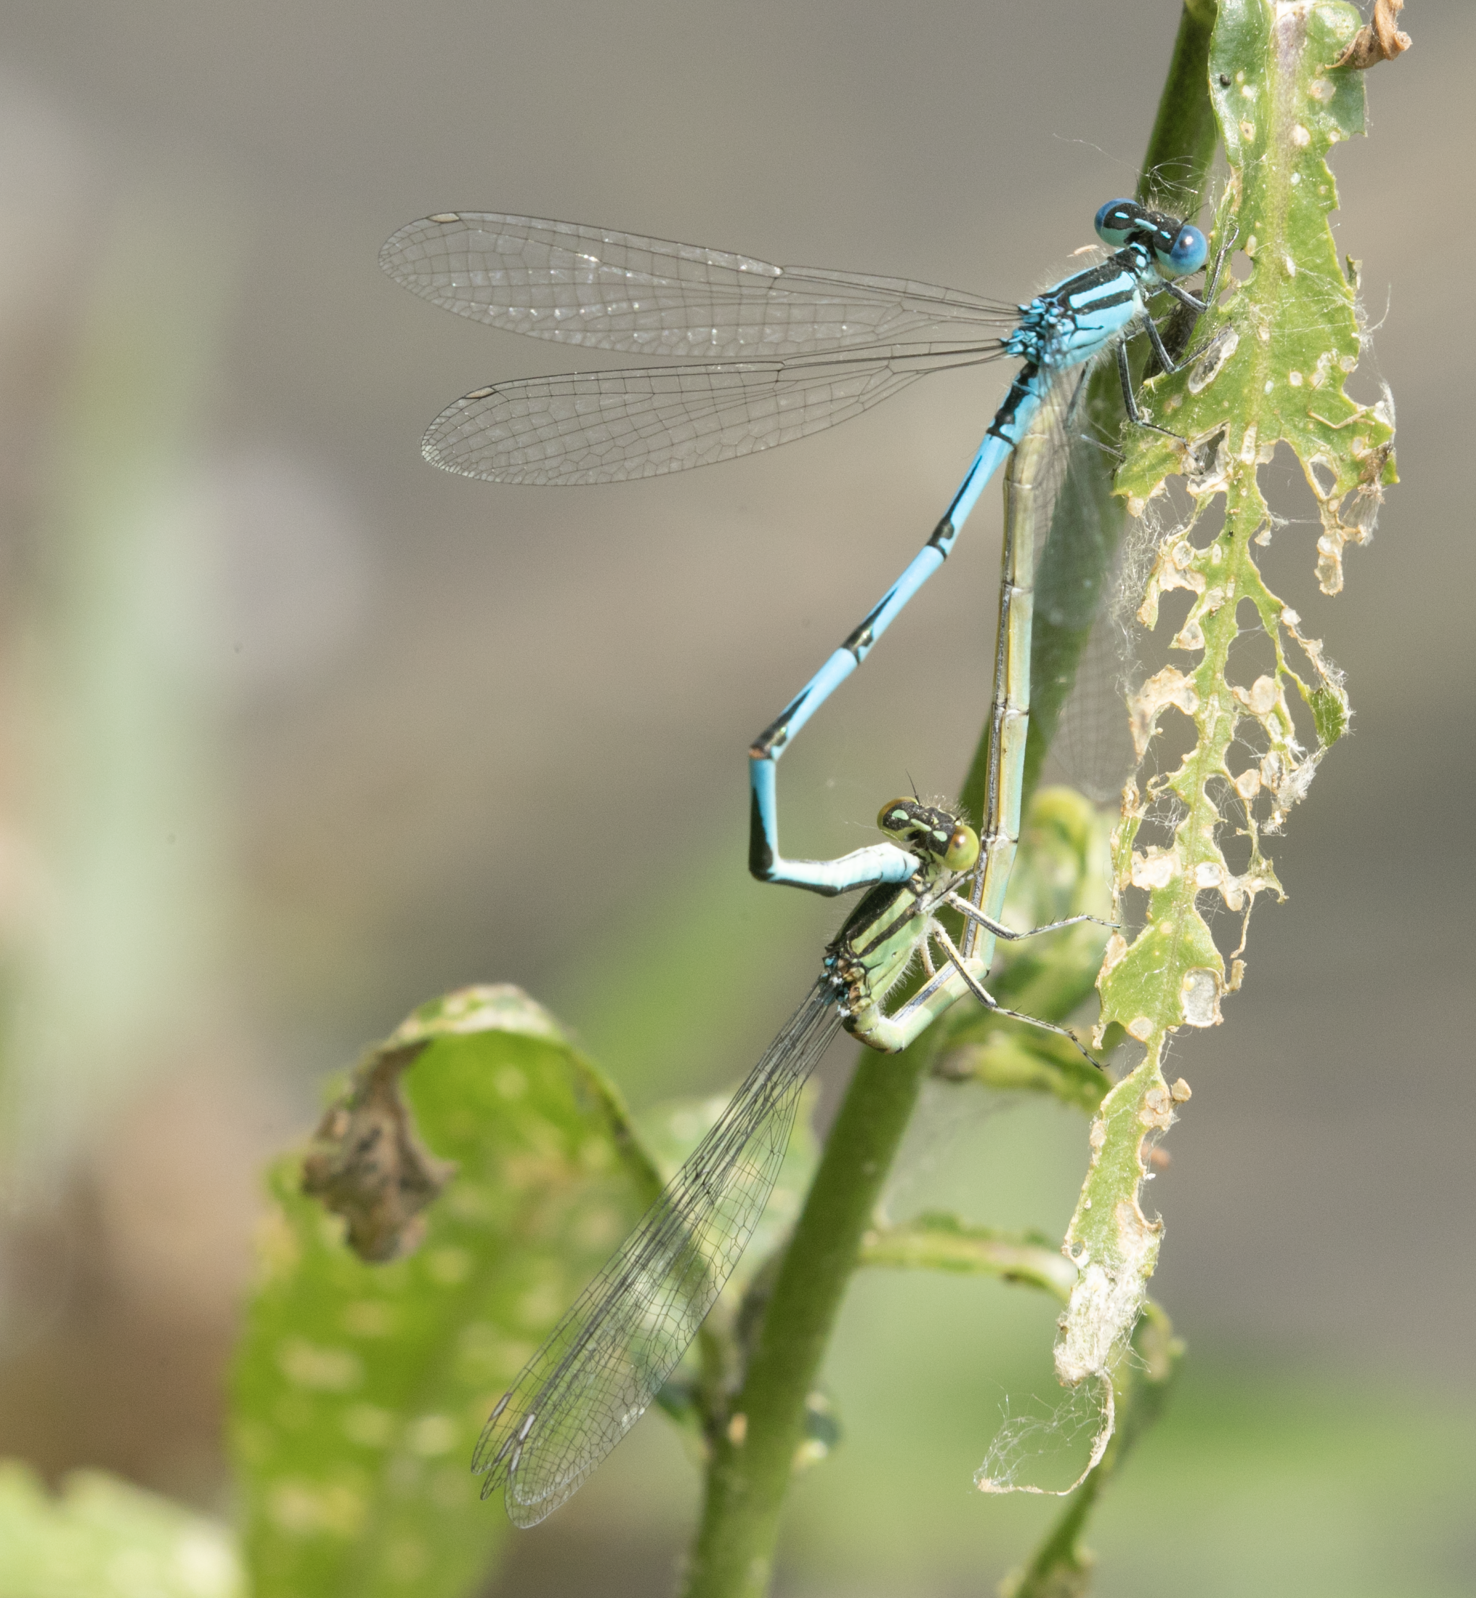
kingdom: Animalia
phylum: Arthropoda
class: Insecta
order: Odonata
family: Coenagrionidae
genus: Erythromma
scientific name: Erythromma lindenii
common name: Blue-eye
